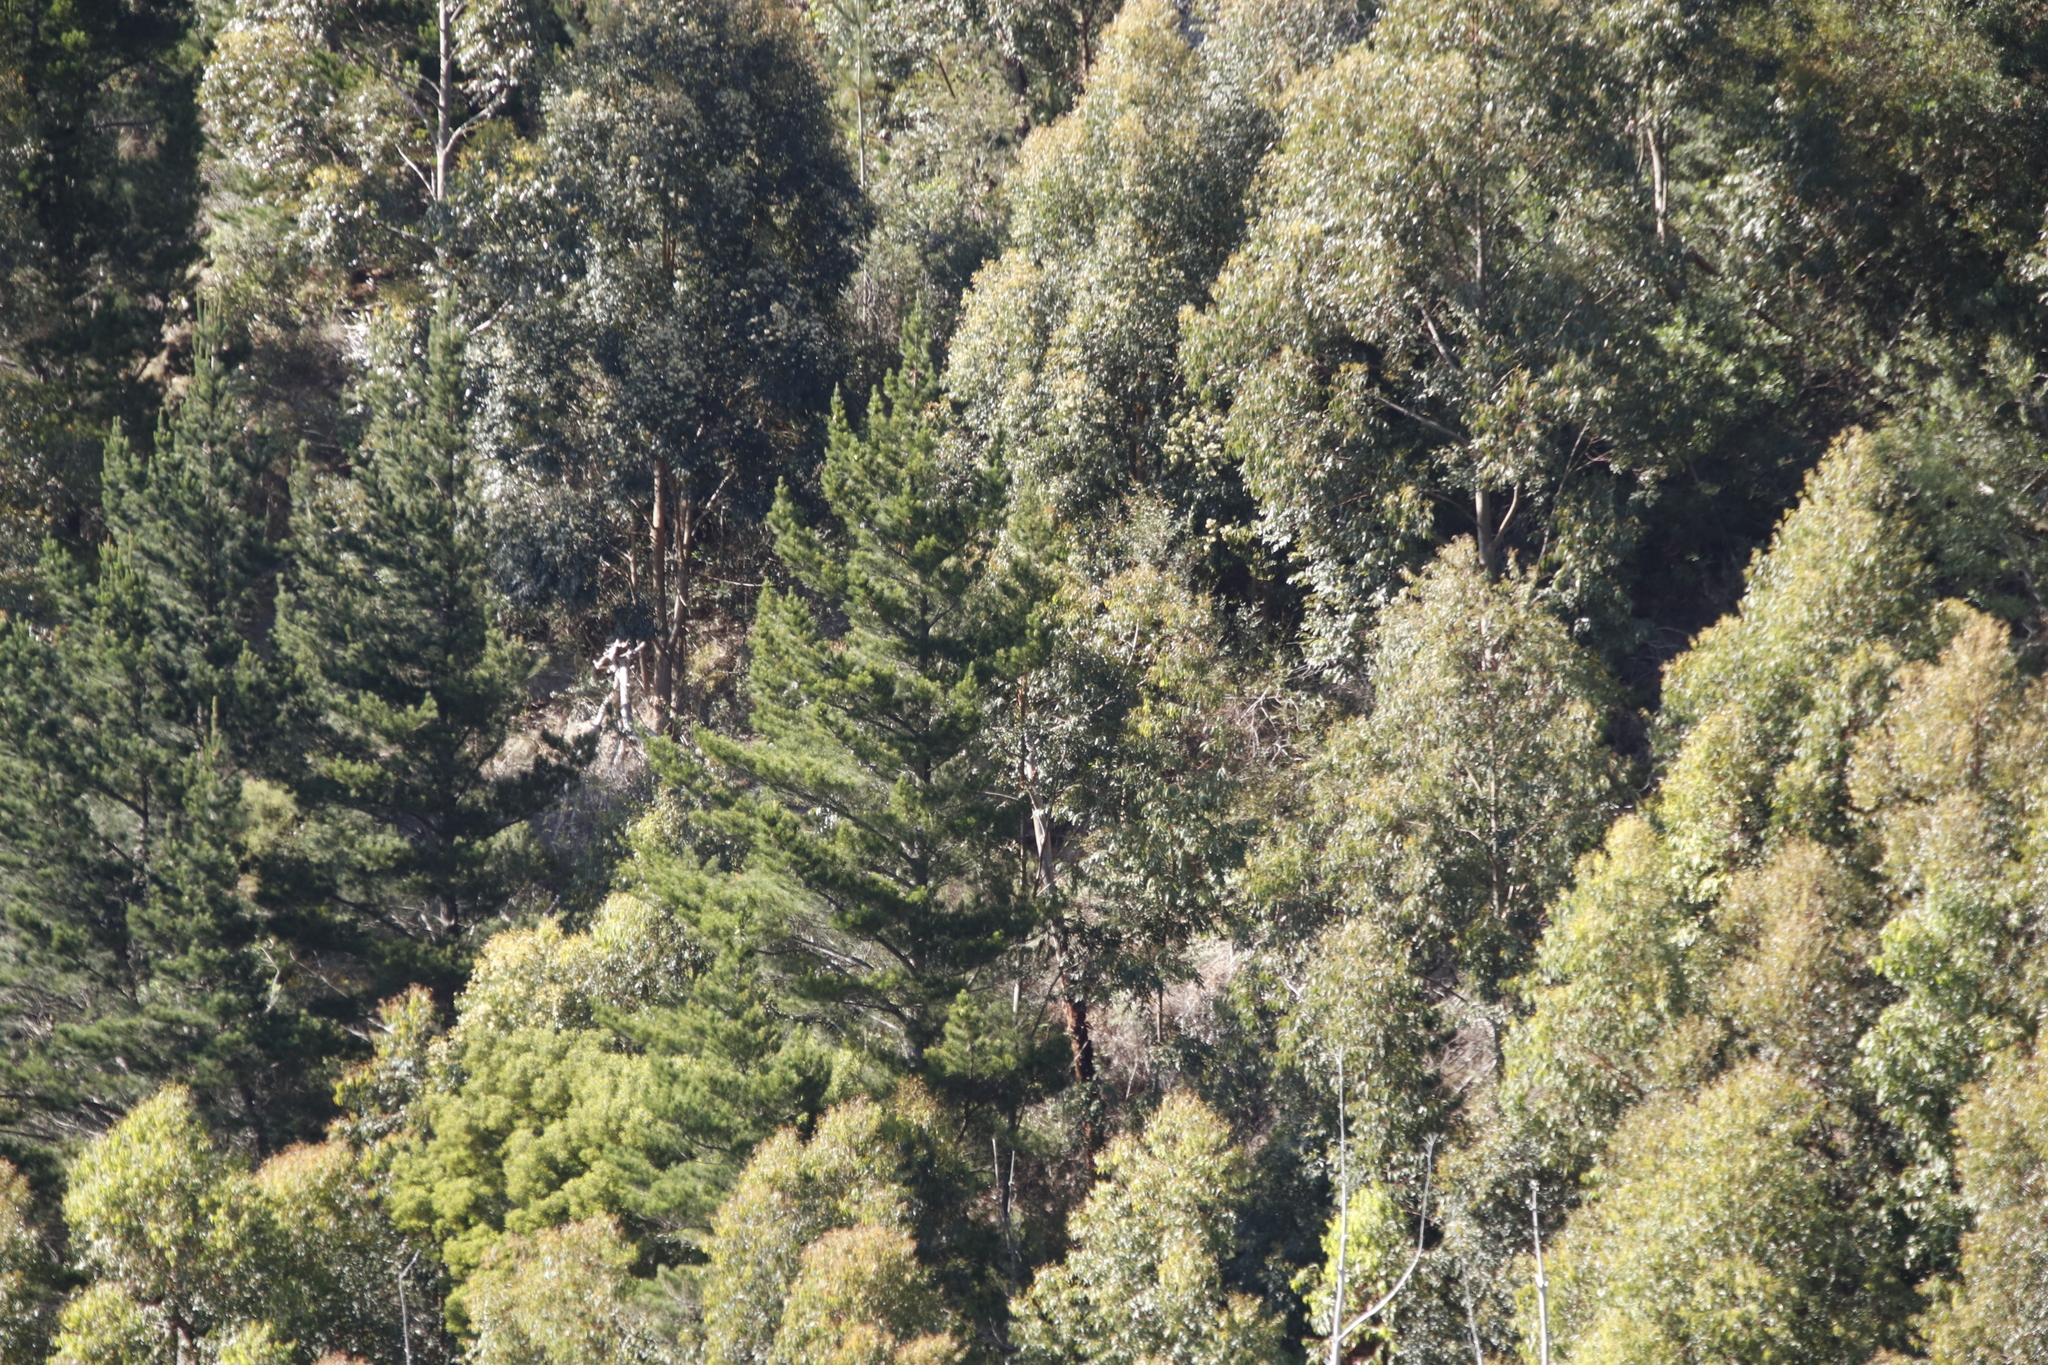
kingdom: Plantae
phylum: Tracheophyta
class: Pinopsida
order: Pinales
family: Pinaceae
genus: Pinus
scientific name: Pinus radiata
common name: Monterey pine
